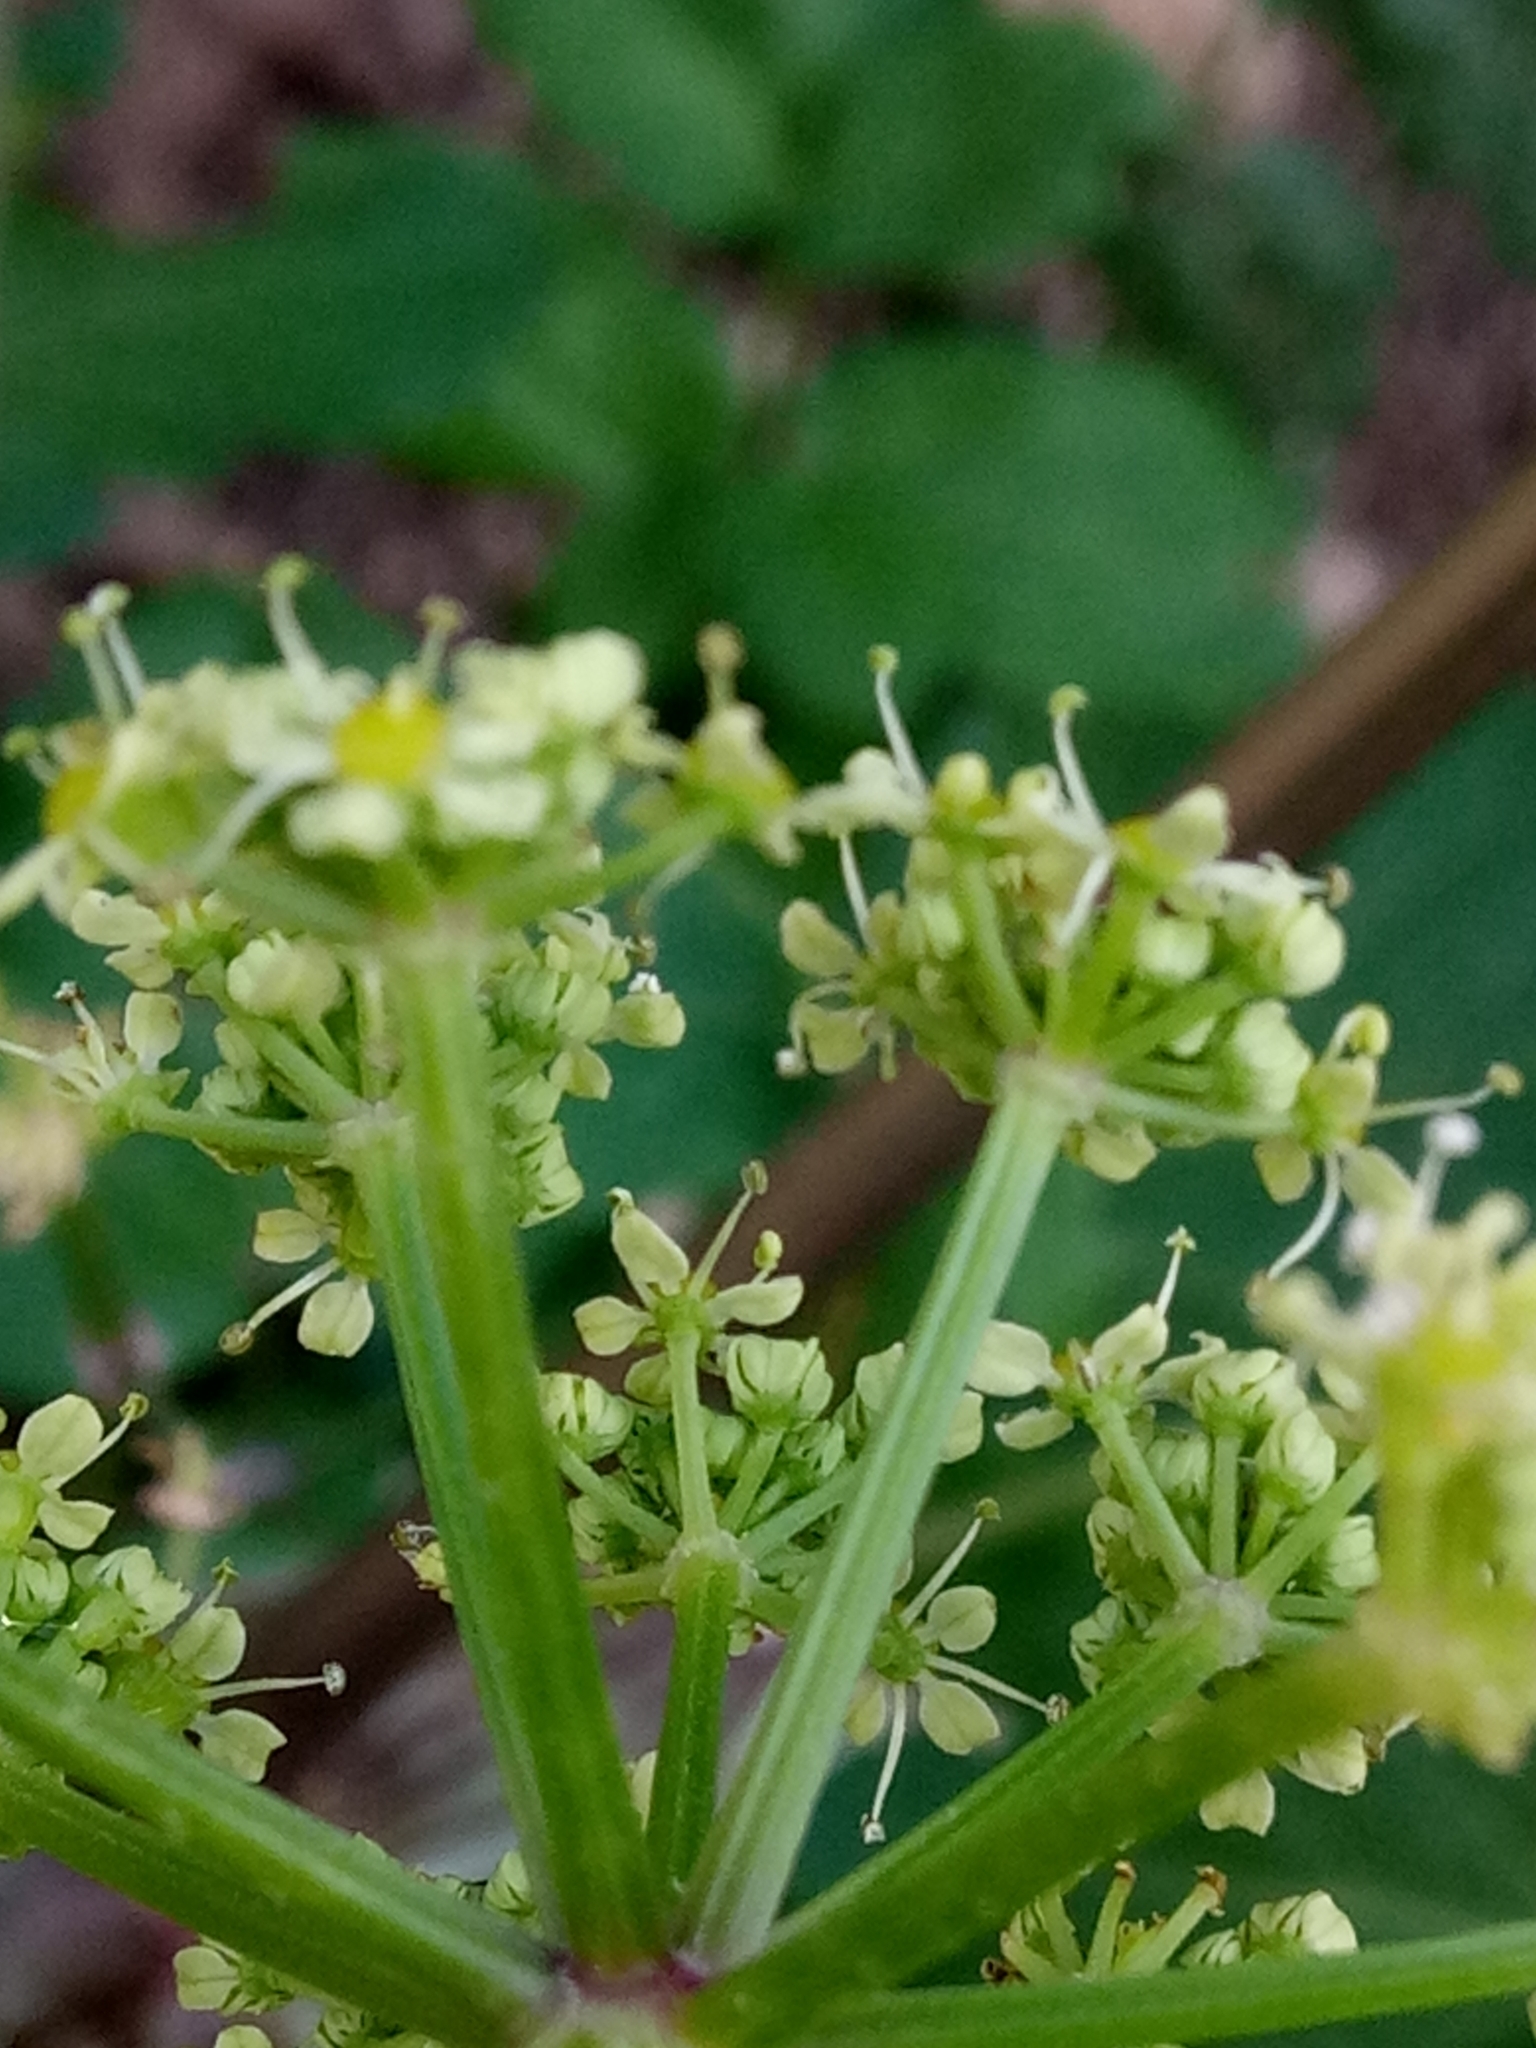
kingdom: Plantae
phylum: Tracheophyta
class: Magnoliopsida
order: Apiales
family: Apiaceae
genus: Smyrnium
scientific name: Smyrnium olusatrum
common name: Alexanders
